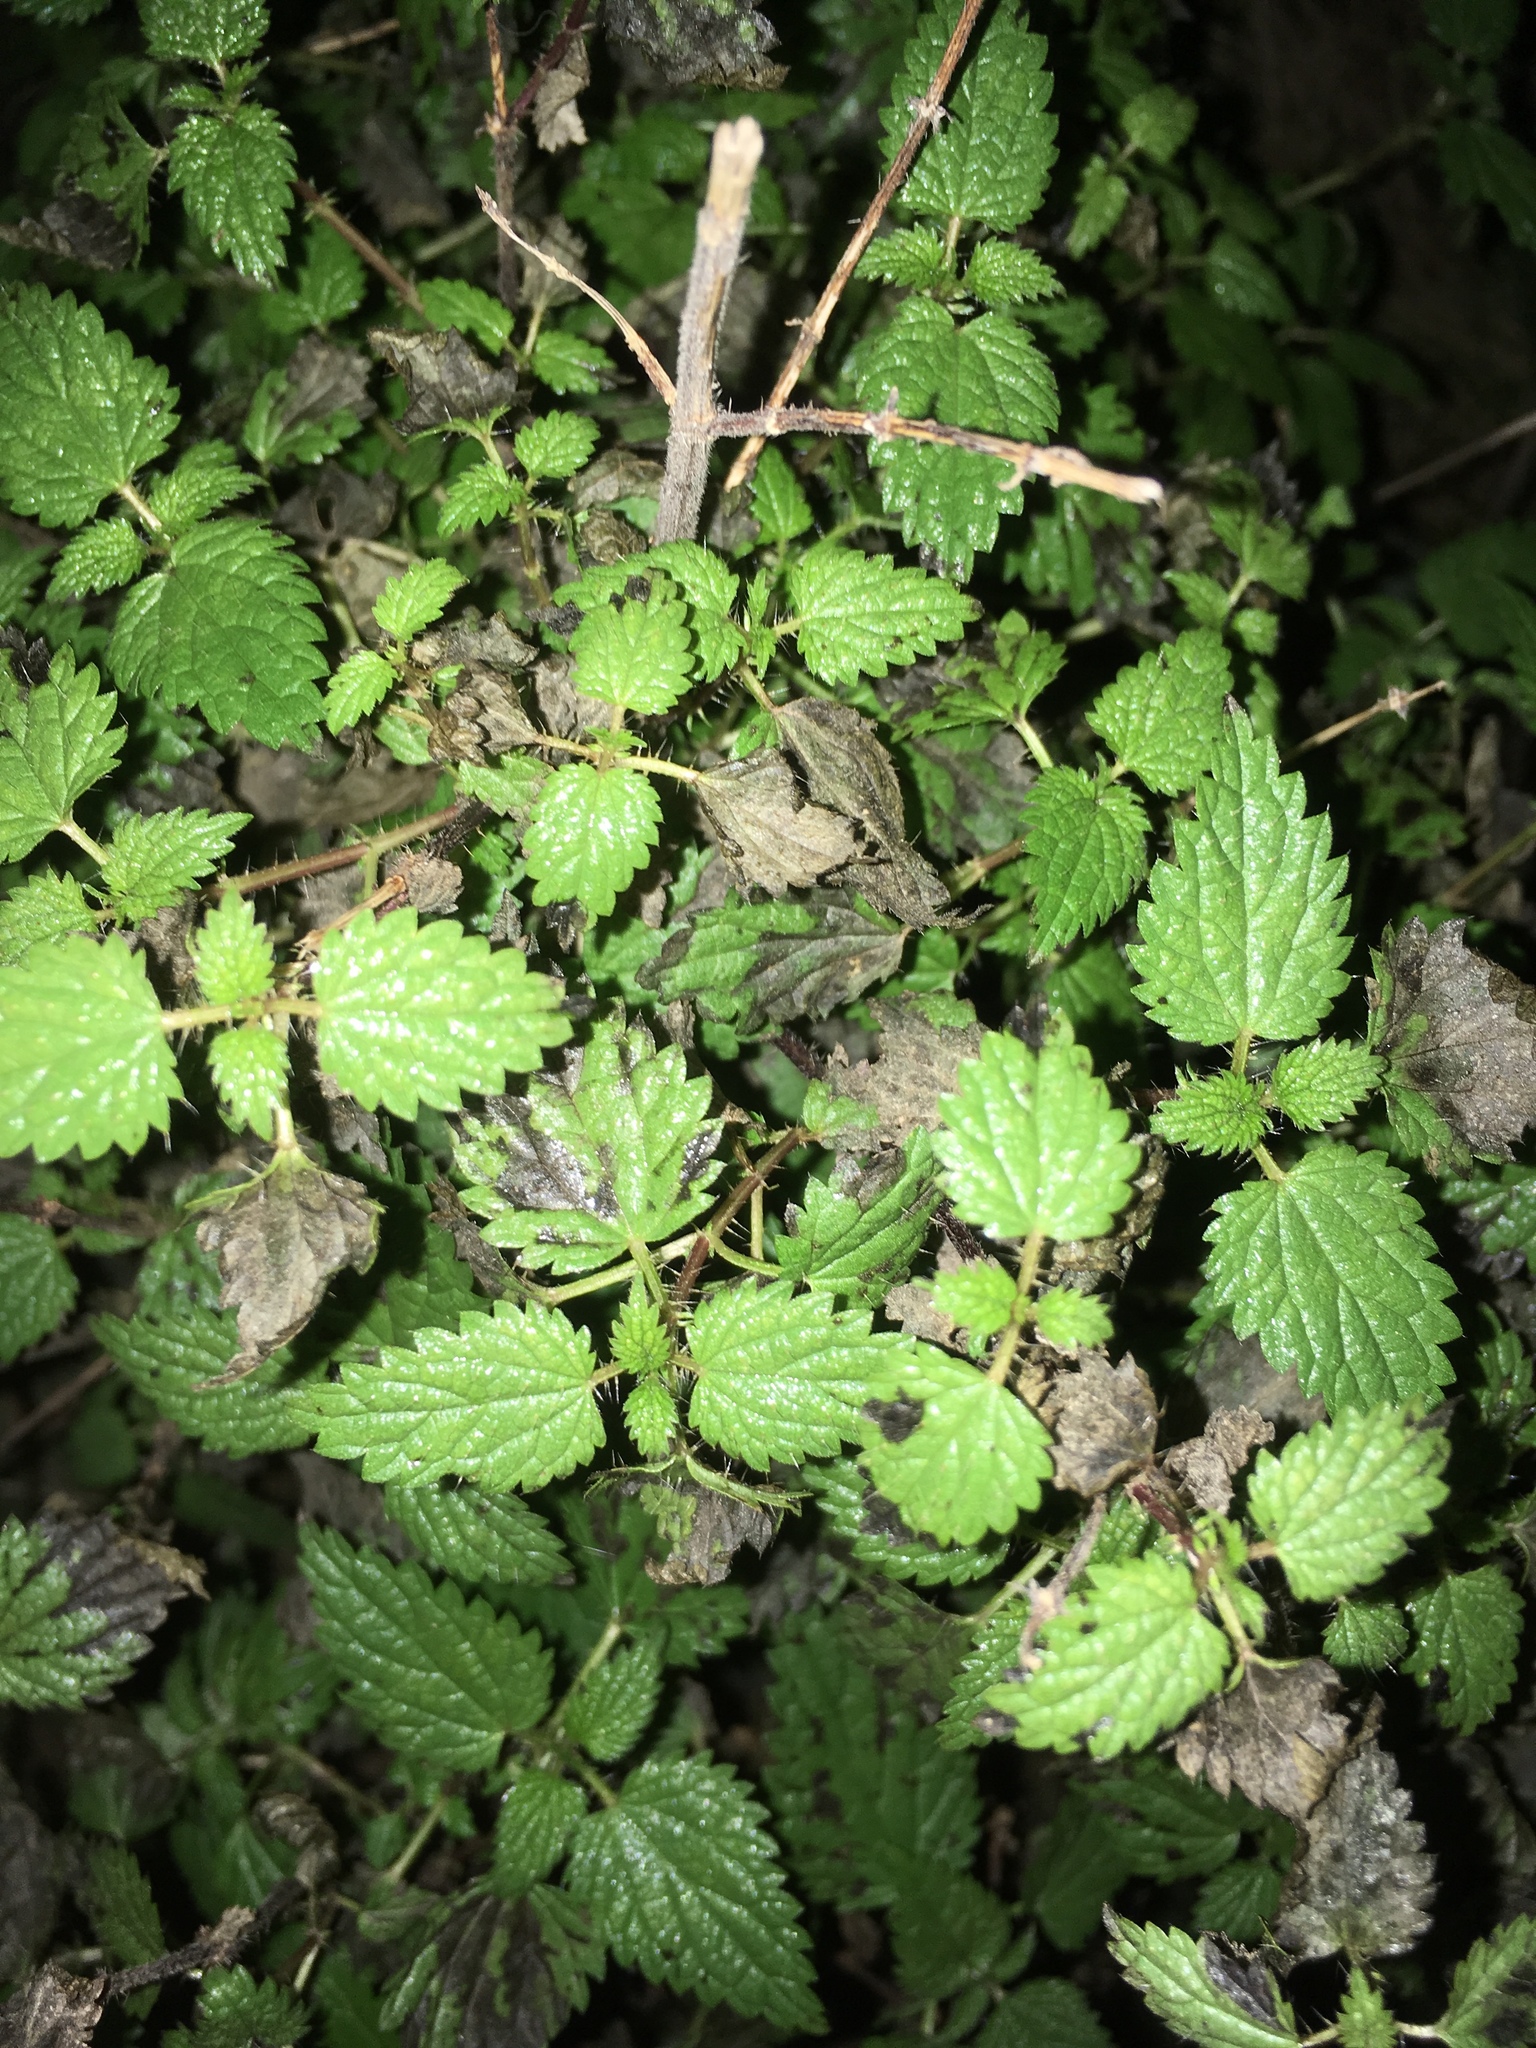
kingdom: Plantae
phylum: Tracheophyta
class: Magnoliopsida
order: Rosales
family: Urticaceae
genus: Urtica
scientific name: Urtica dioica
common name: Common nettle
